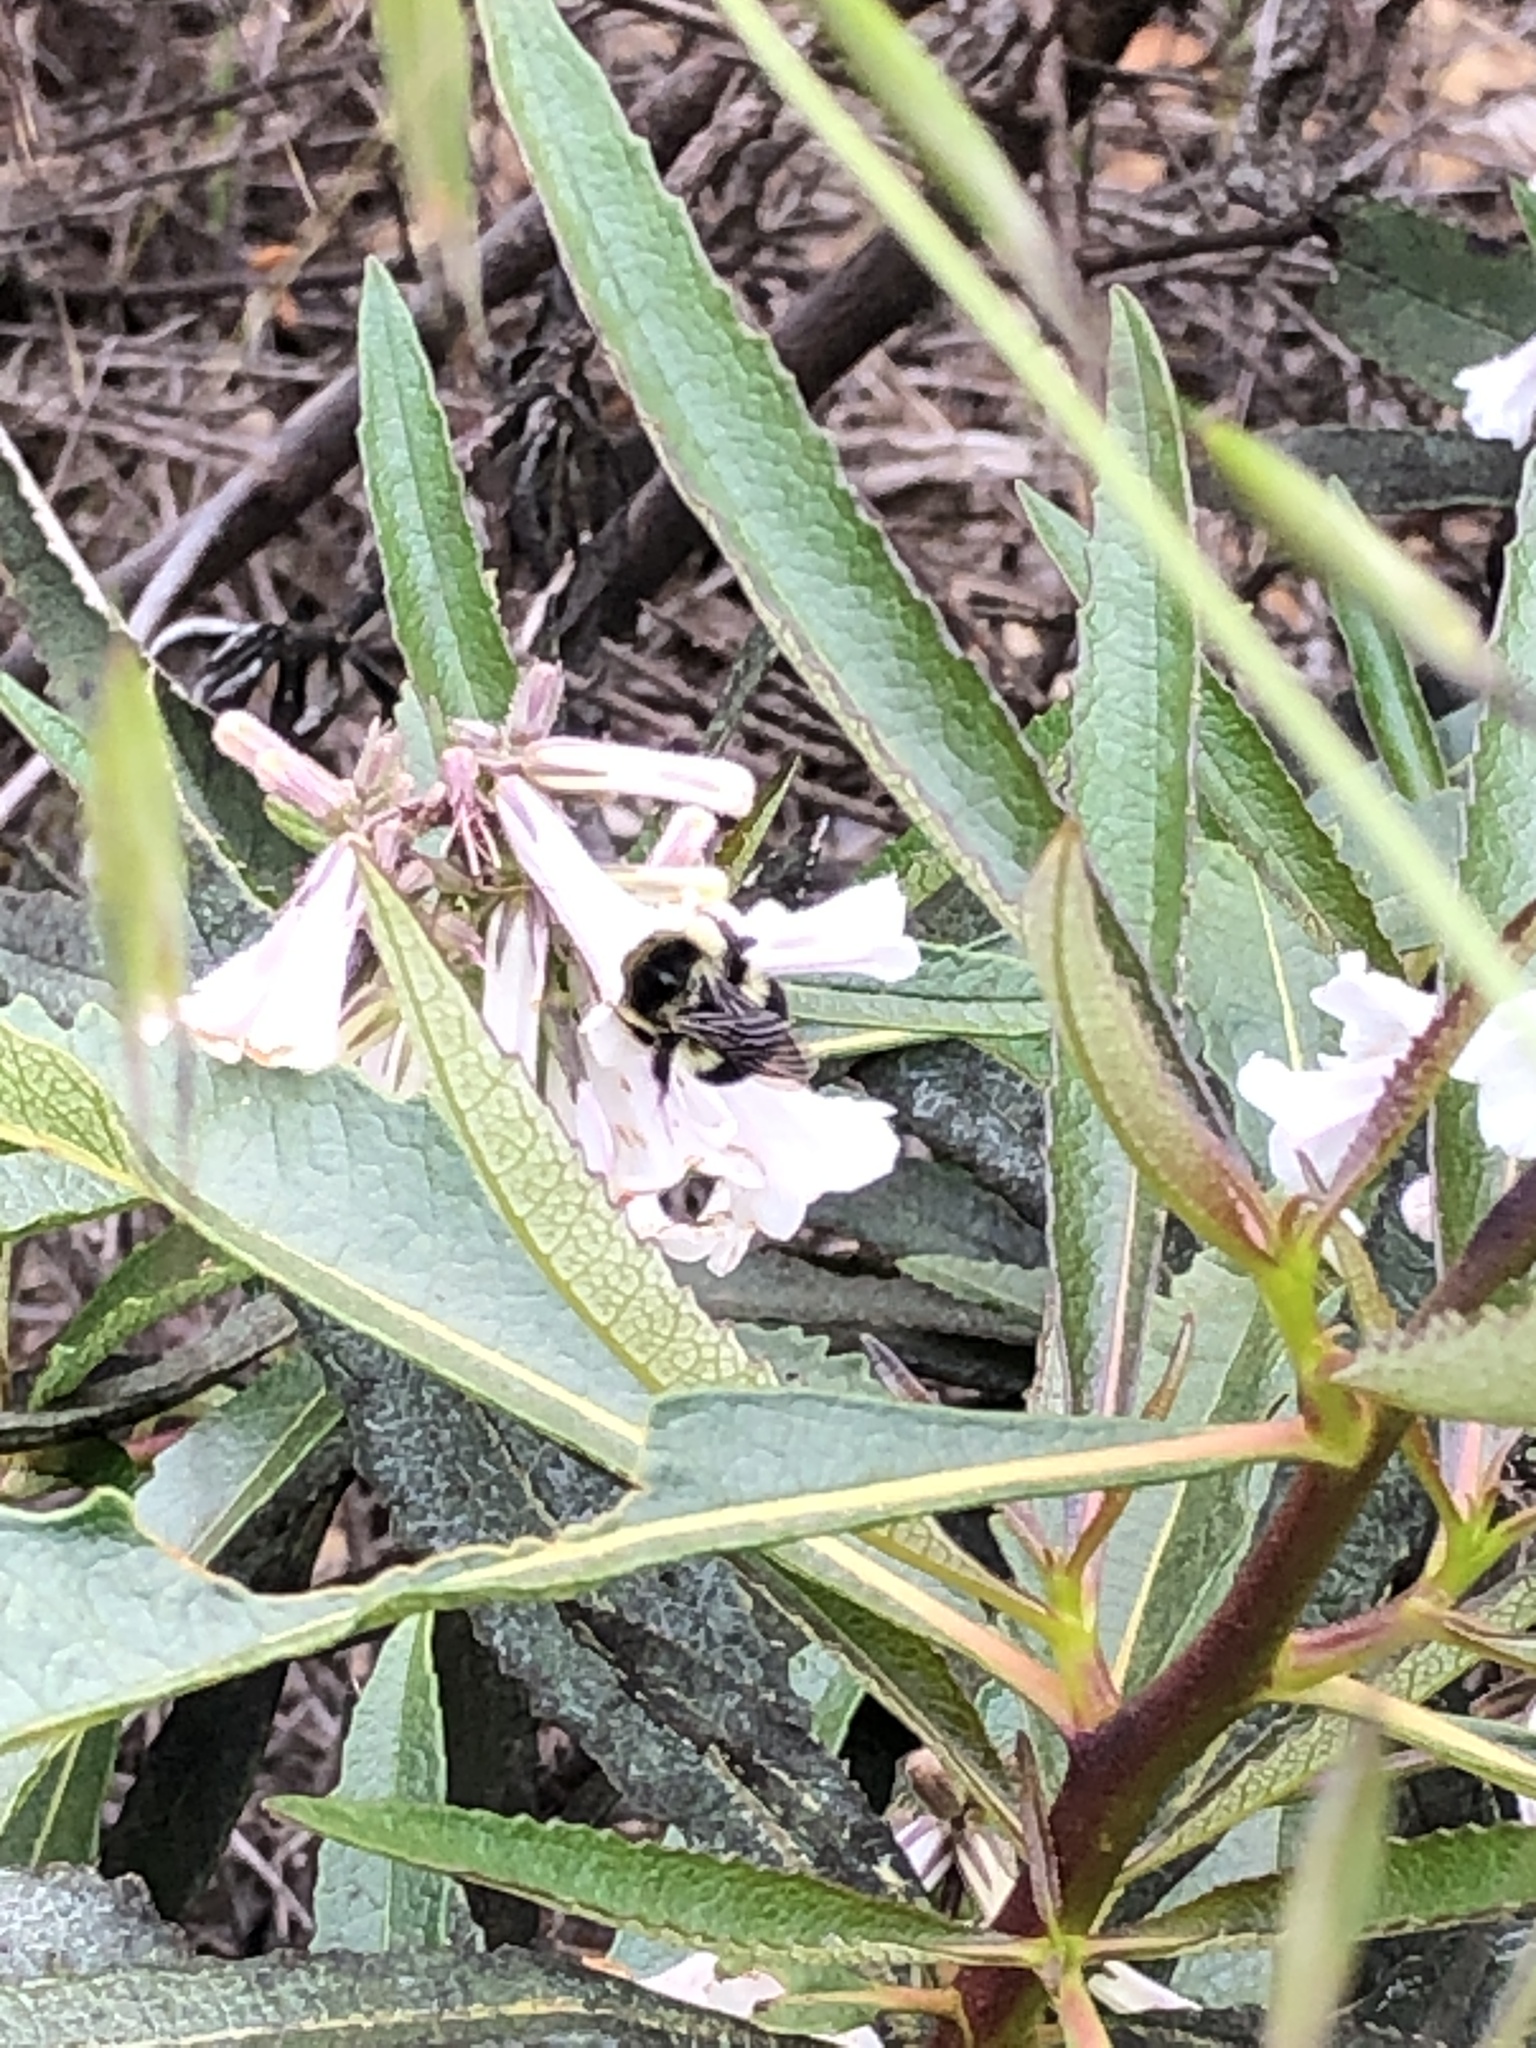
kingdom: Animalia
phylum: Arthropoda
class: Insecta
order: Hymenoptera
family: Apidae
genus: Bombus
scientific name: Bombus melanopygus
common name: Black tail bumble bee
